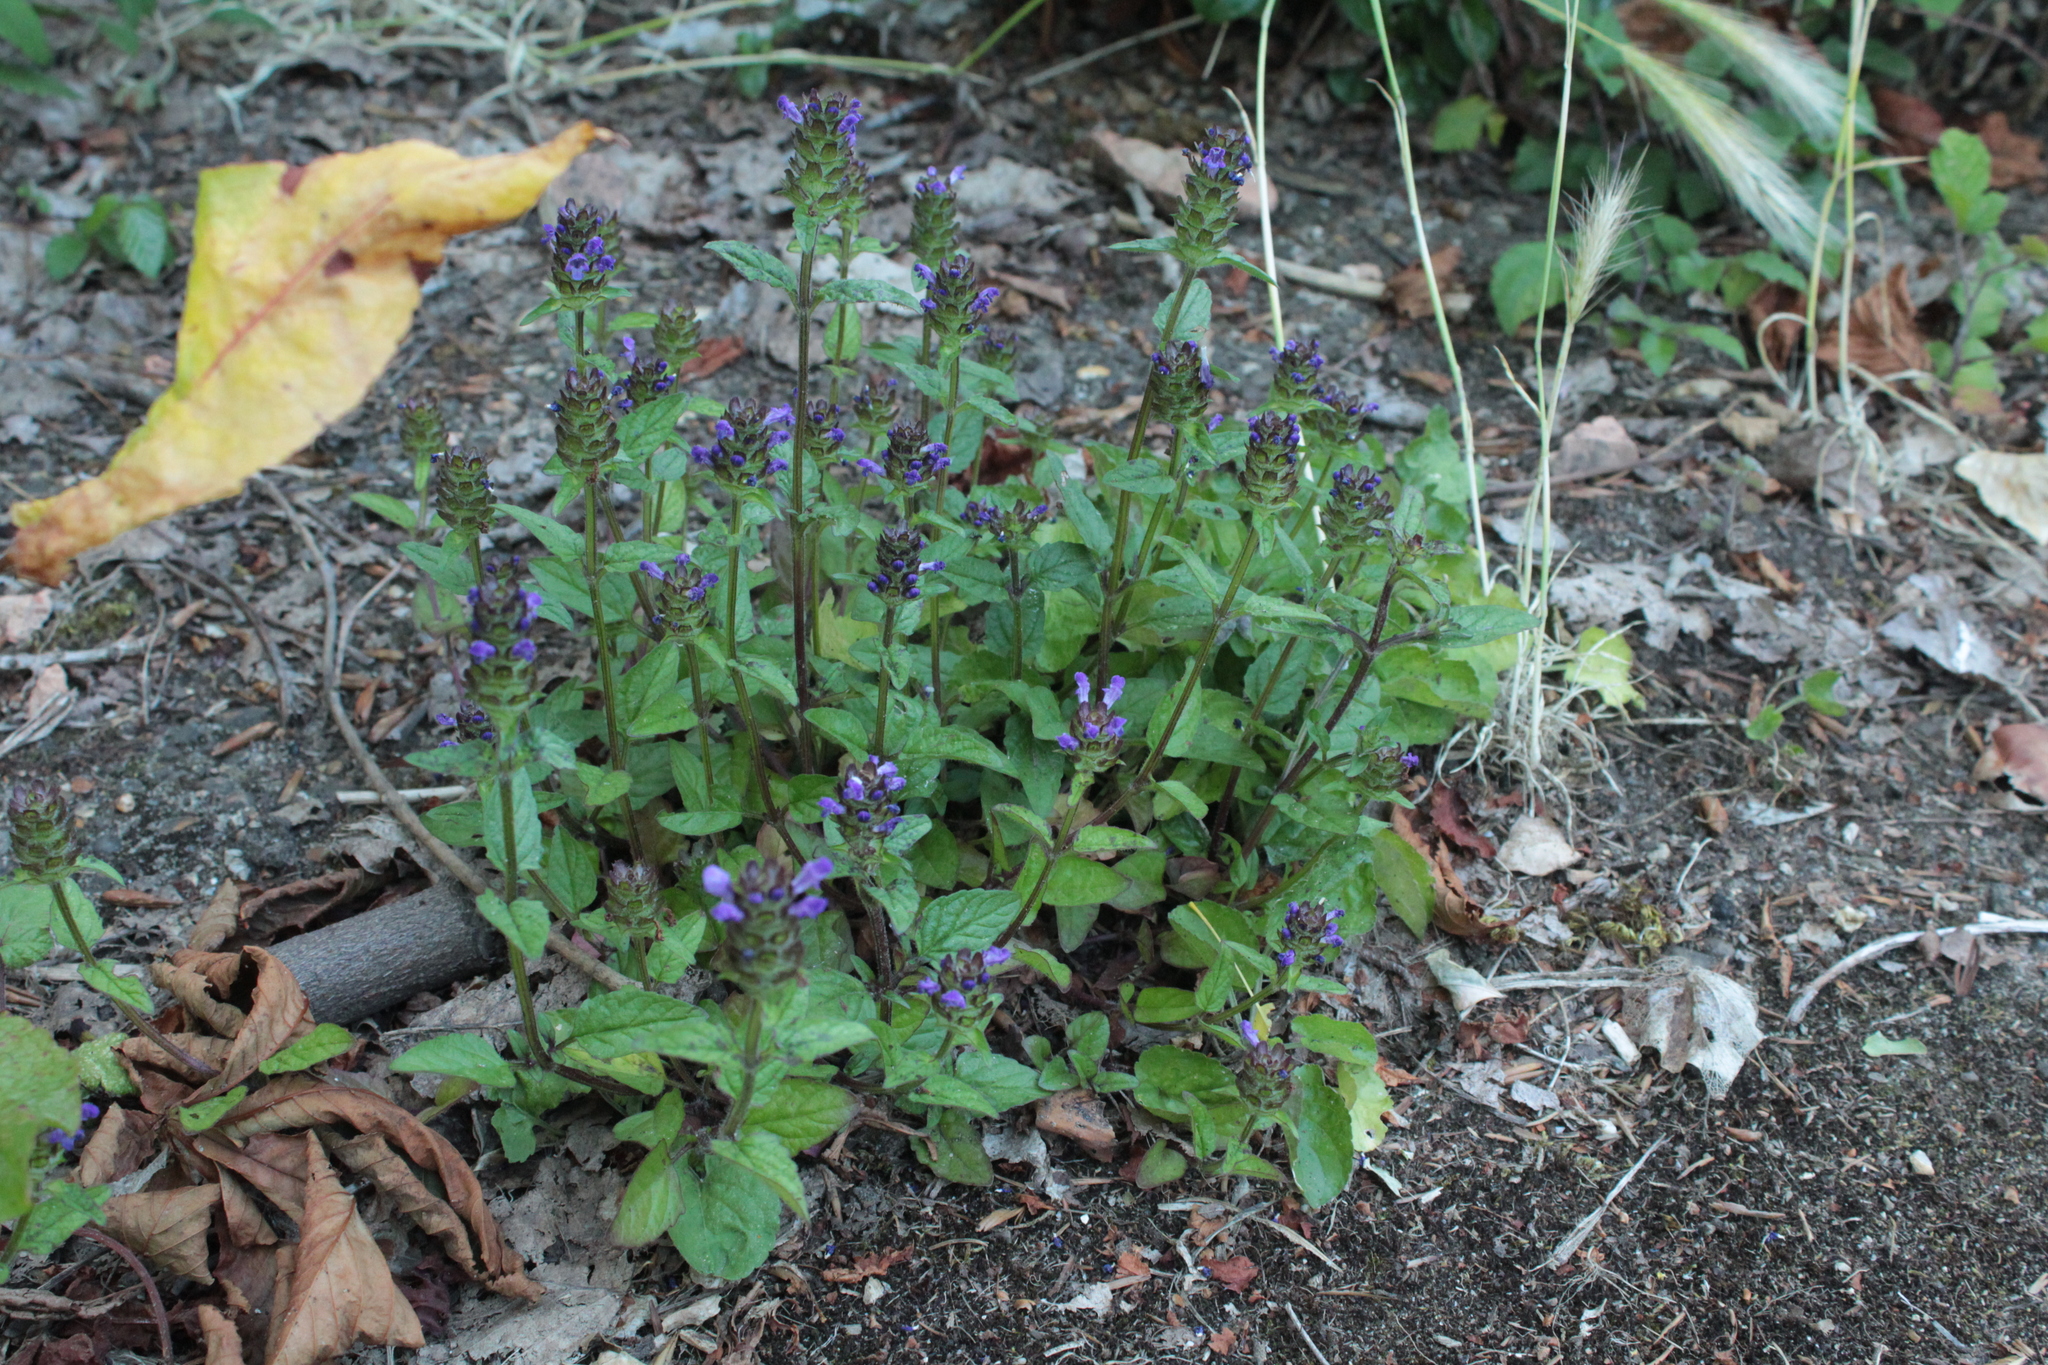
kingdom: Plantae
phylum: Tracheophyta
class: Magnoliopsida
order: Lamiales
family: Lamiaceae
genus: Prunella
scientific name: Prunella vulgaris
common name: Heal-all
